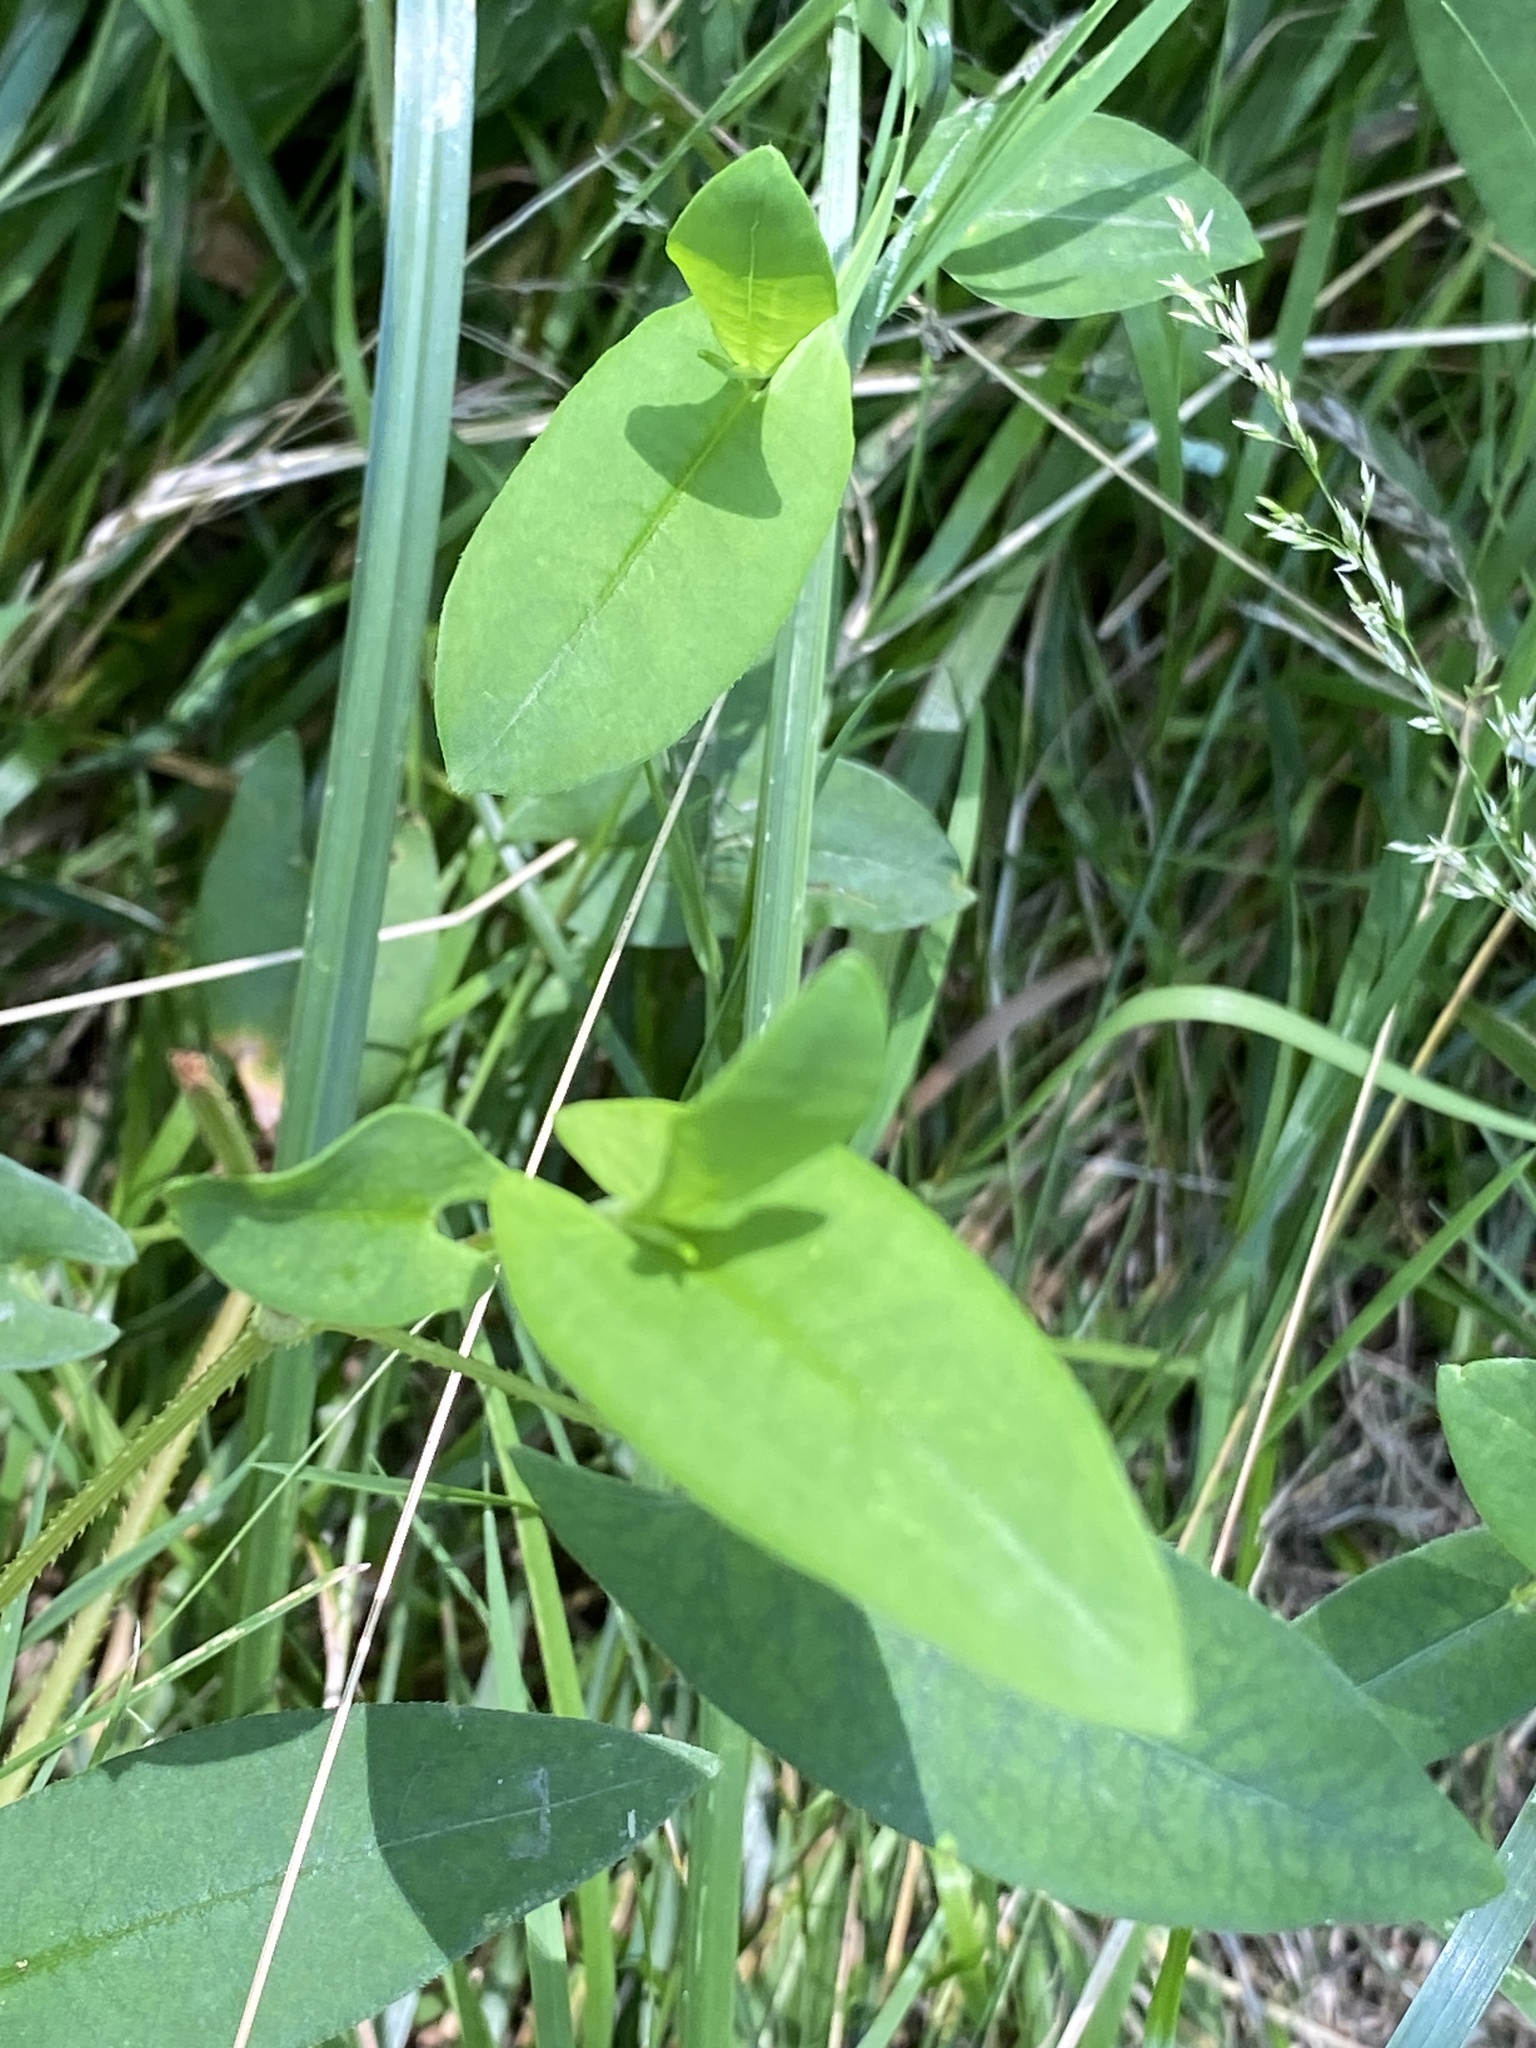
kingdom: Plantae
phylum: Tracheophyta
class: Magnoliopsida
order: Caryophyllales
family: Polygonaceae
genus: Persicaria
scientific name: Persicaria sagittata
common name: American tearthumb
